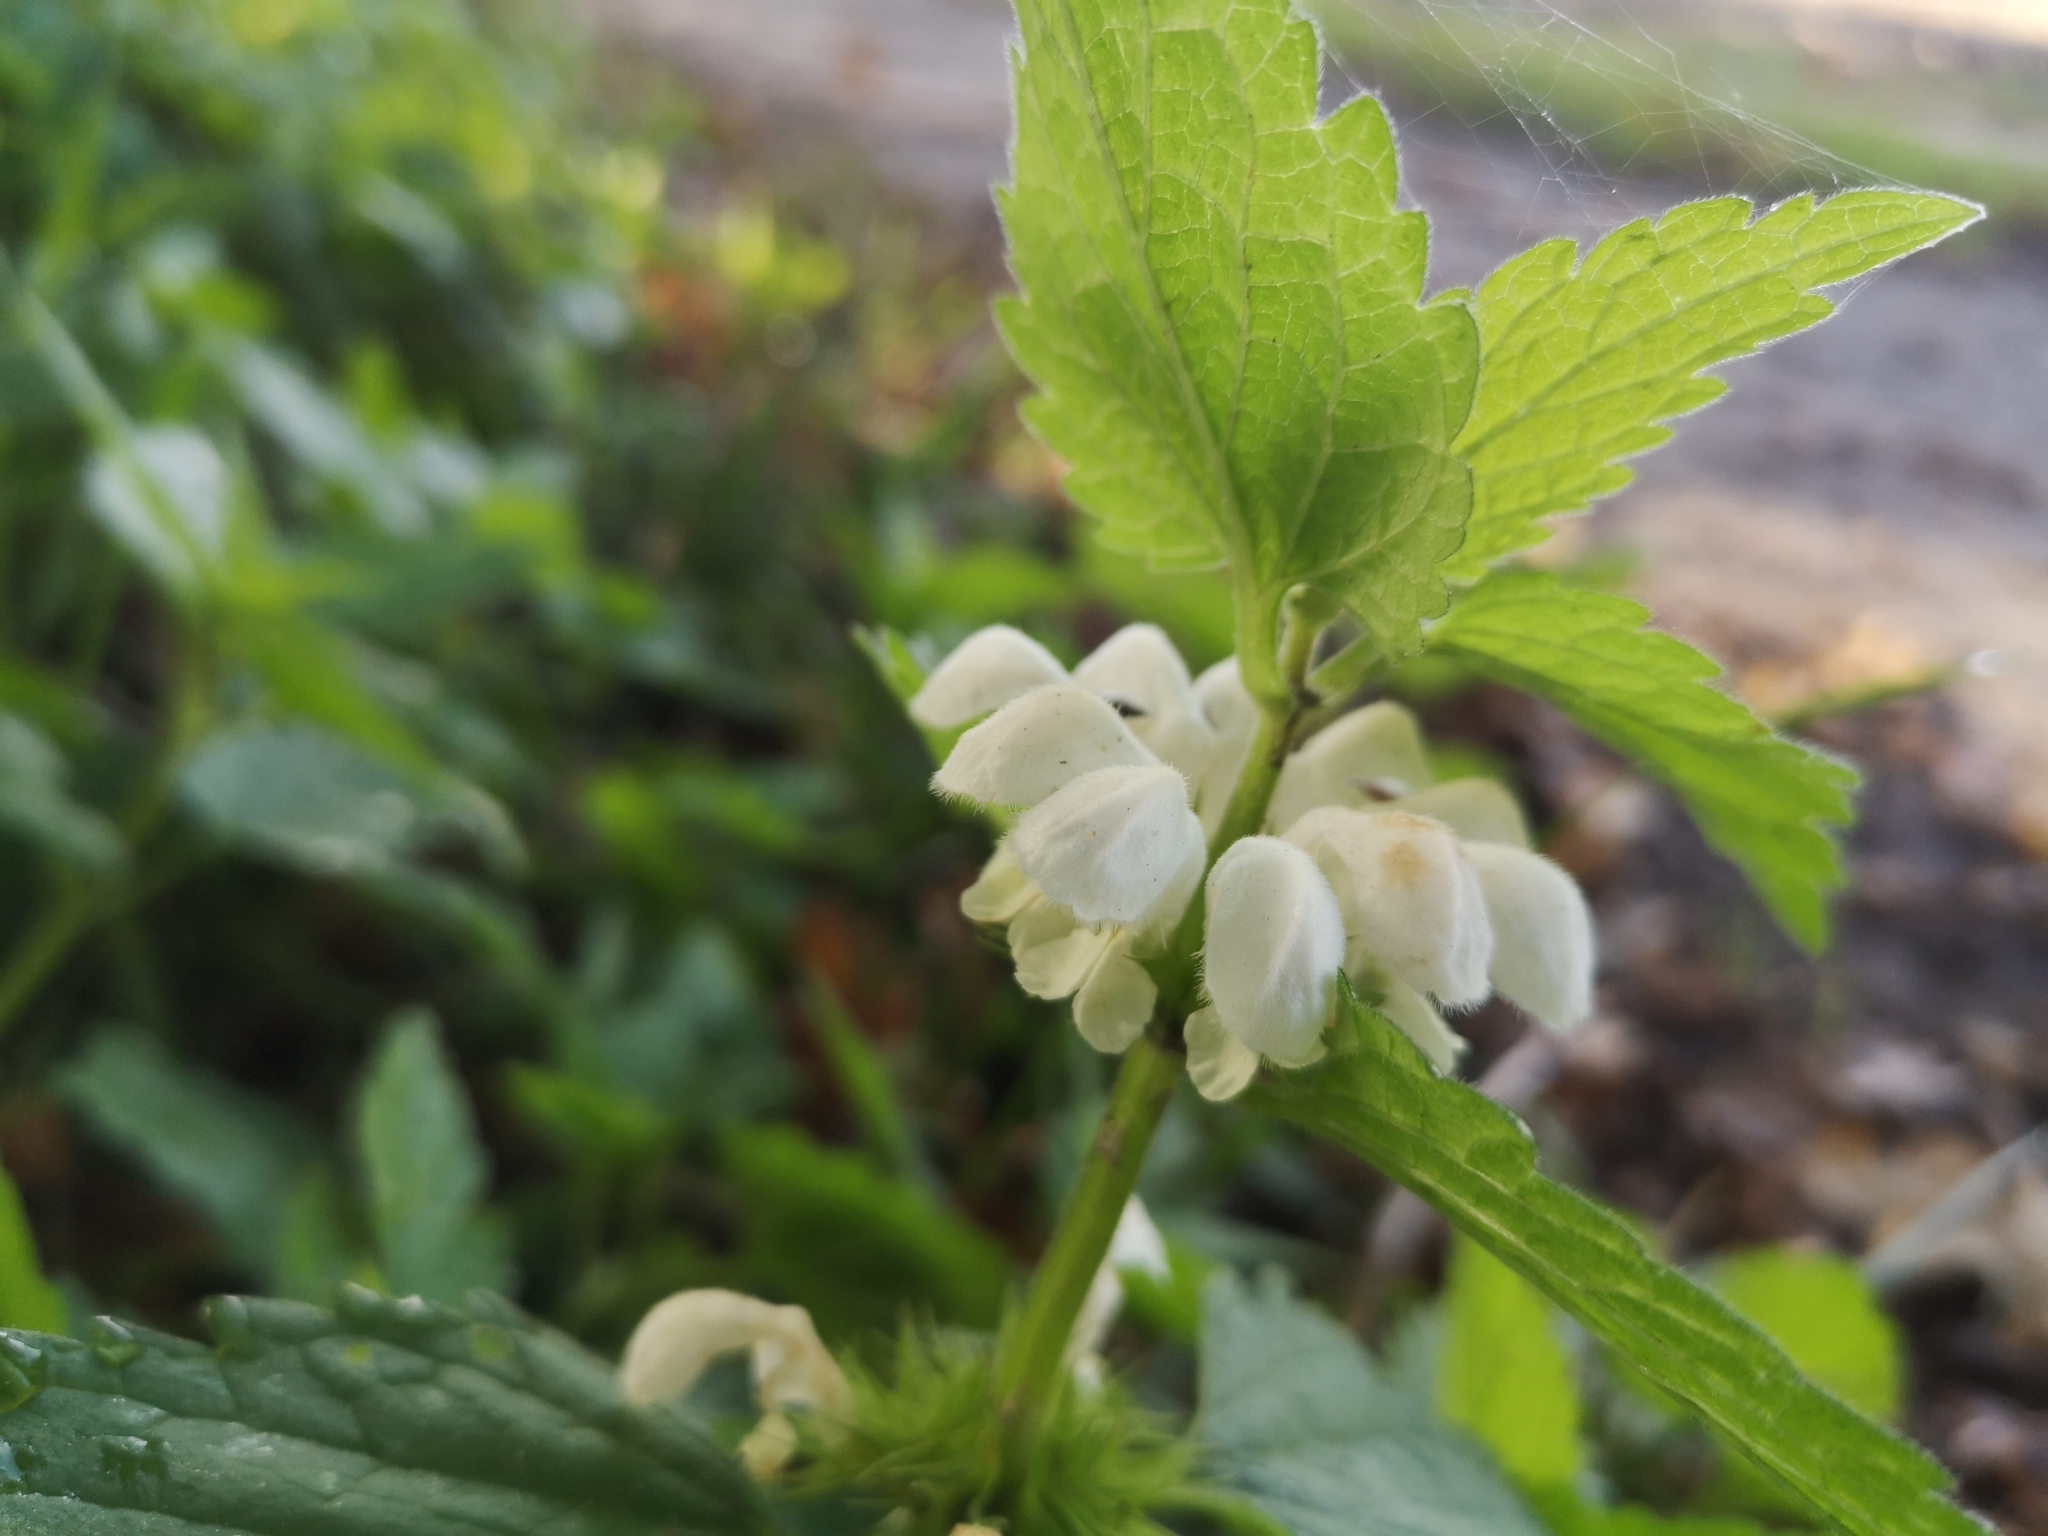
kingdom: Plantae
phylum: Tracheophyta
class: Magnoliopsida
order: Lamiales
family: Lamiaceae
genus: Lamium
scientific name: Lamium album
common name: White dead-nettle
